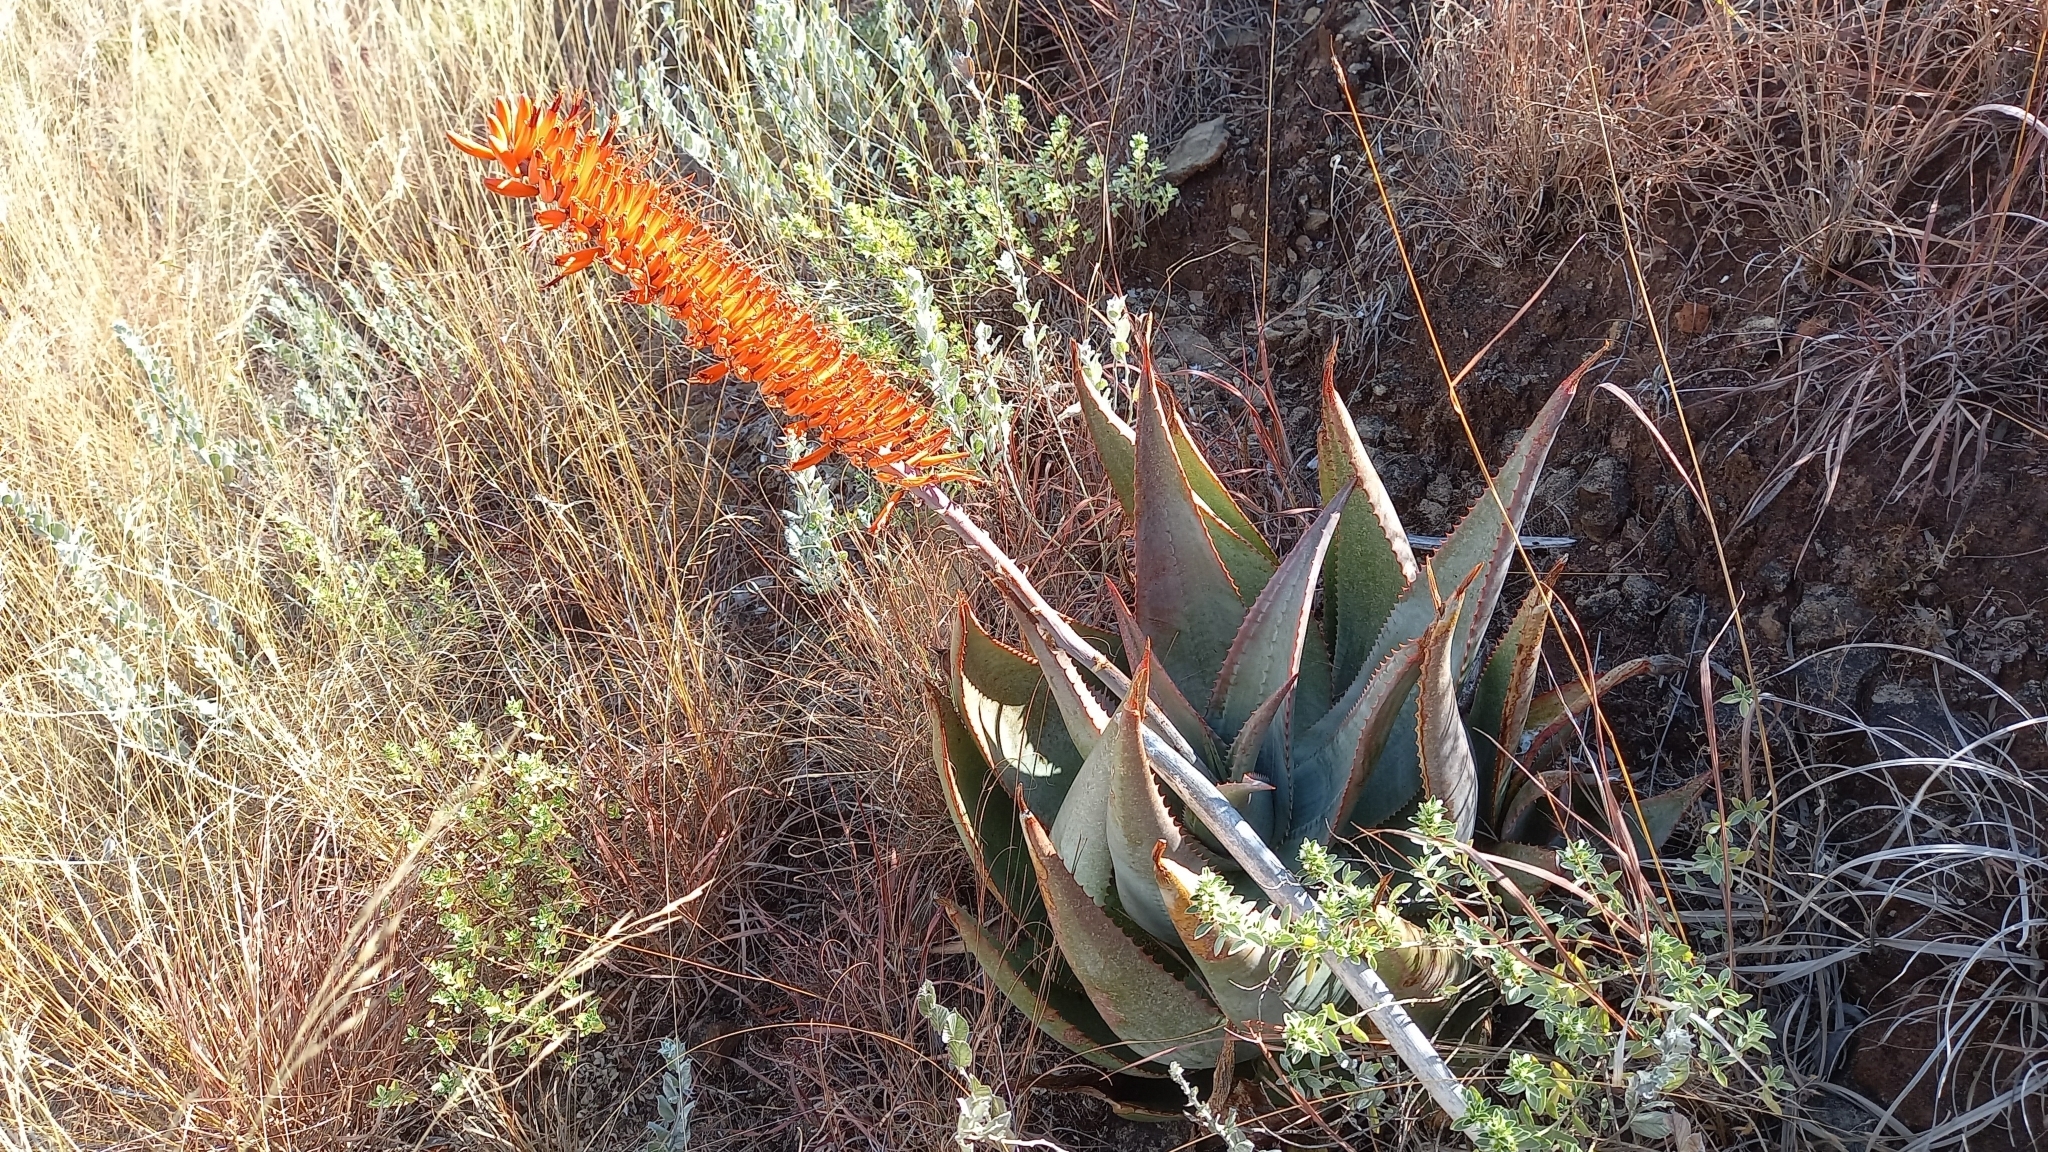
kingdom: Plantae
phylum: Tracheophyta
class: Liliopsida
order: Asparagales
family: Asphodelaceae
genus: Aloe
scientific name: Aloe ortholopha
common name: Dyke aloe
